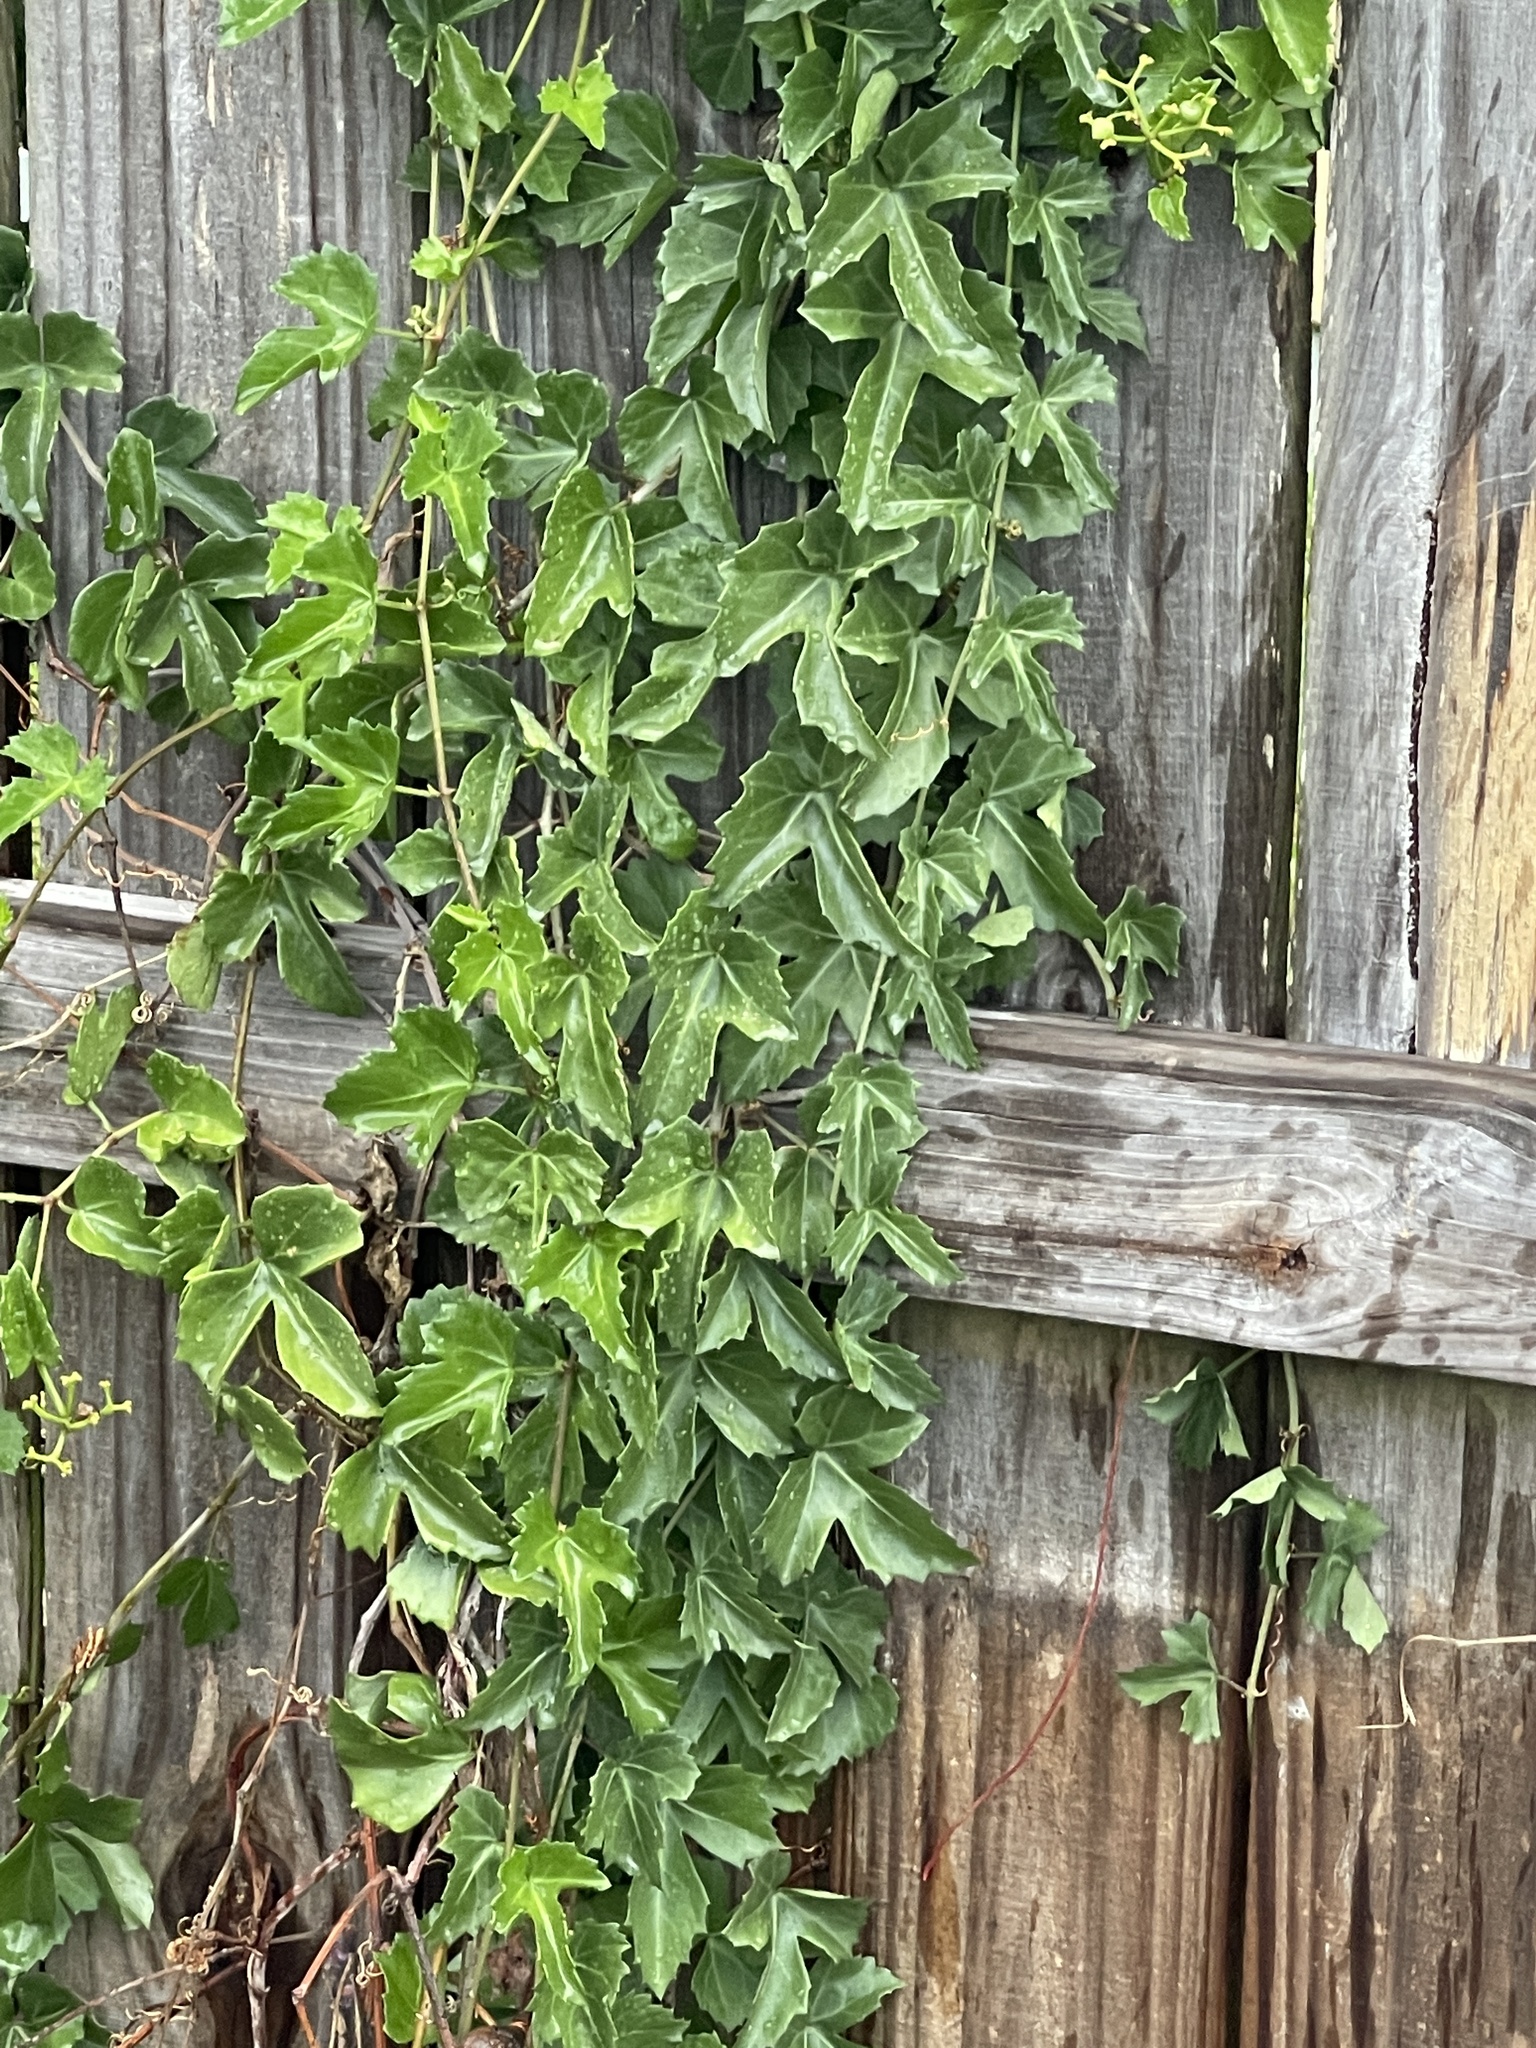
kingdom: Plantae
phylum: Tracheophyta
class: Magnoliopsida
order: Vitales
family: Vitaceae
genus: Cissus
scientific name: Cissus trifoliata
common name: Vine-sorrel
